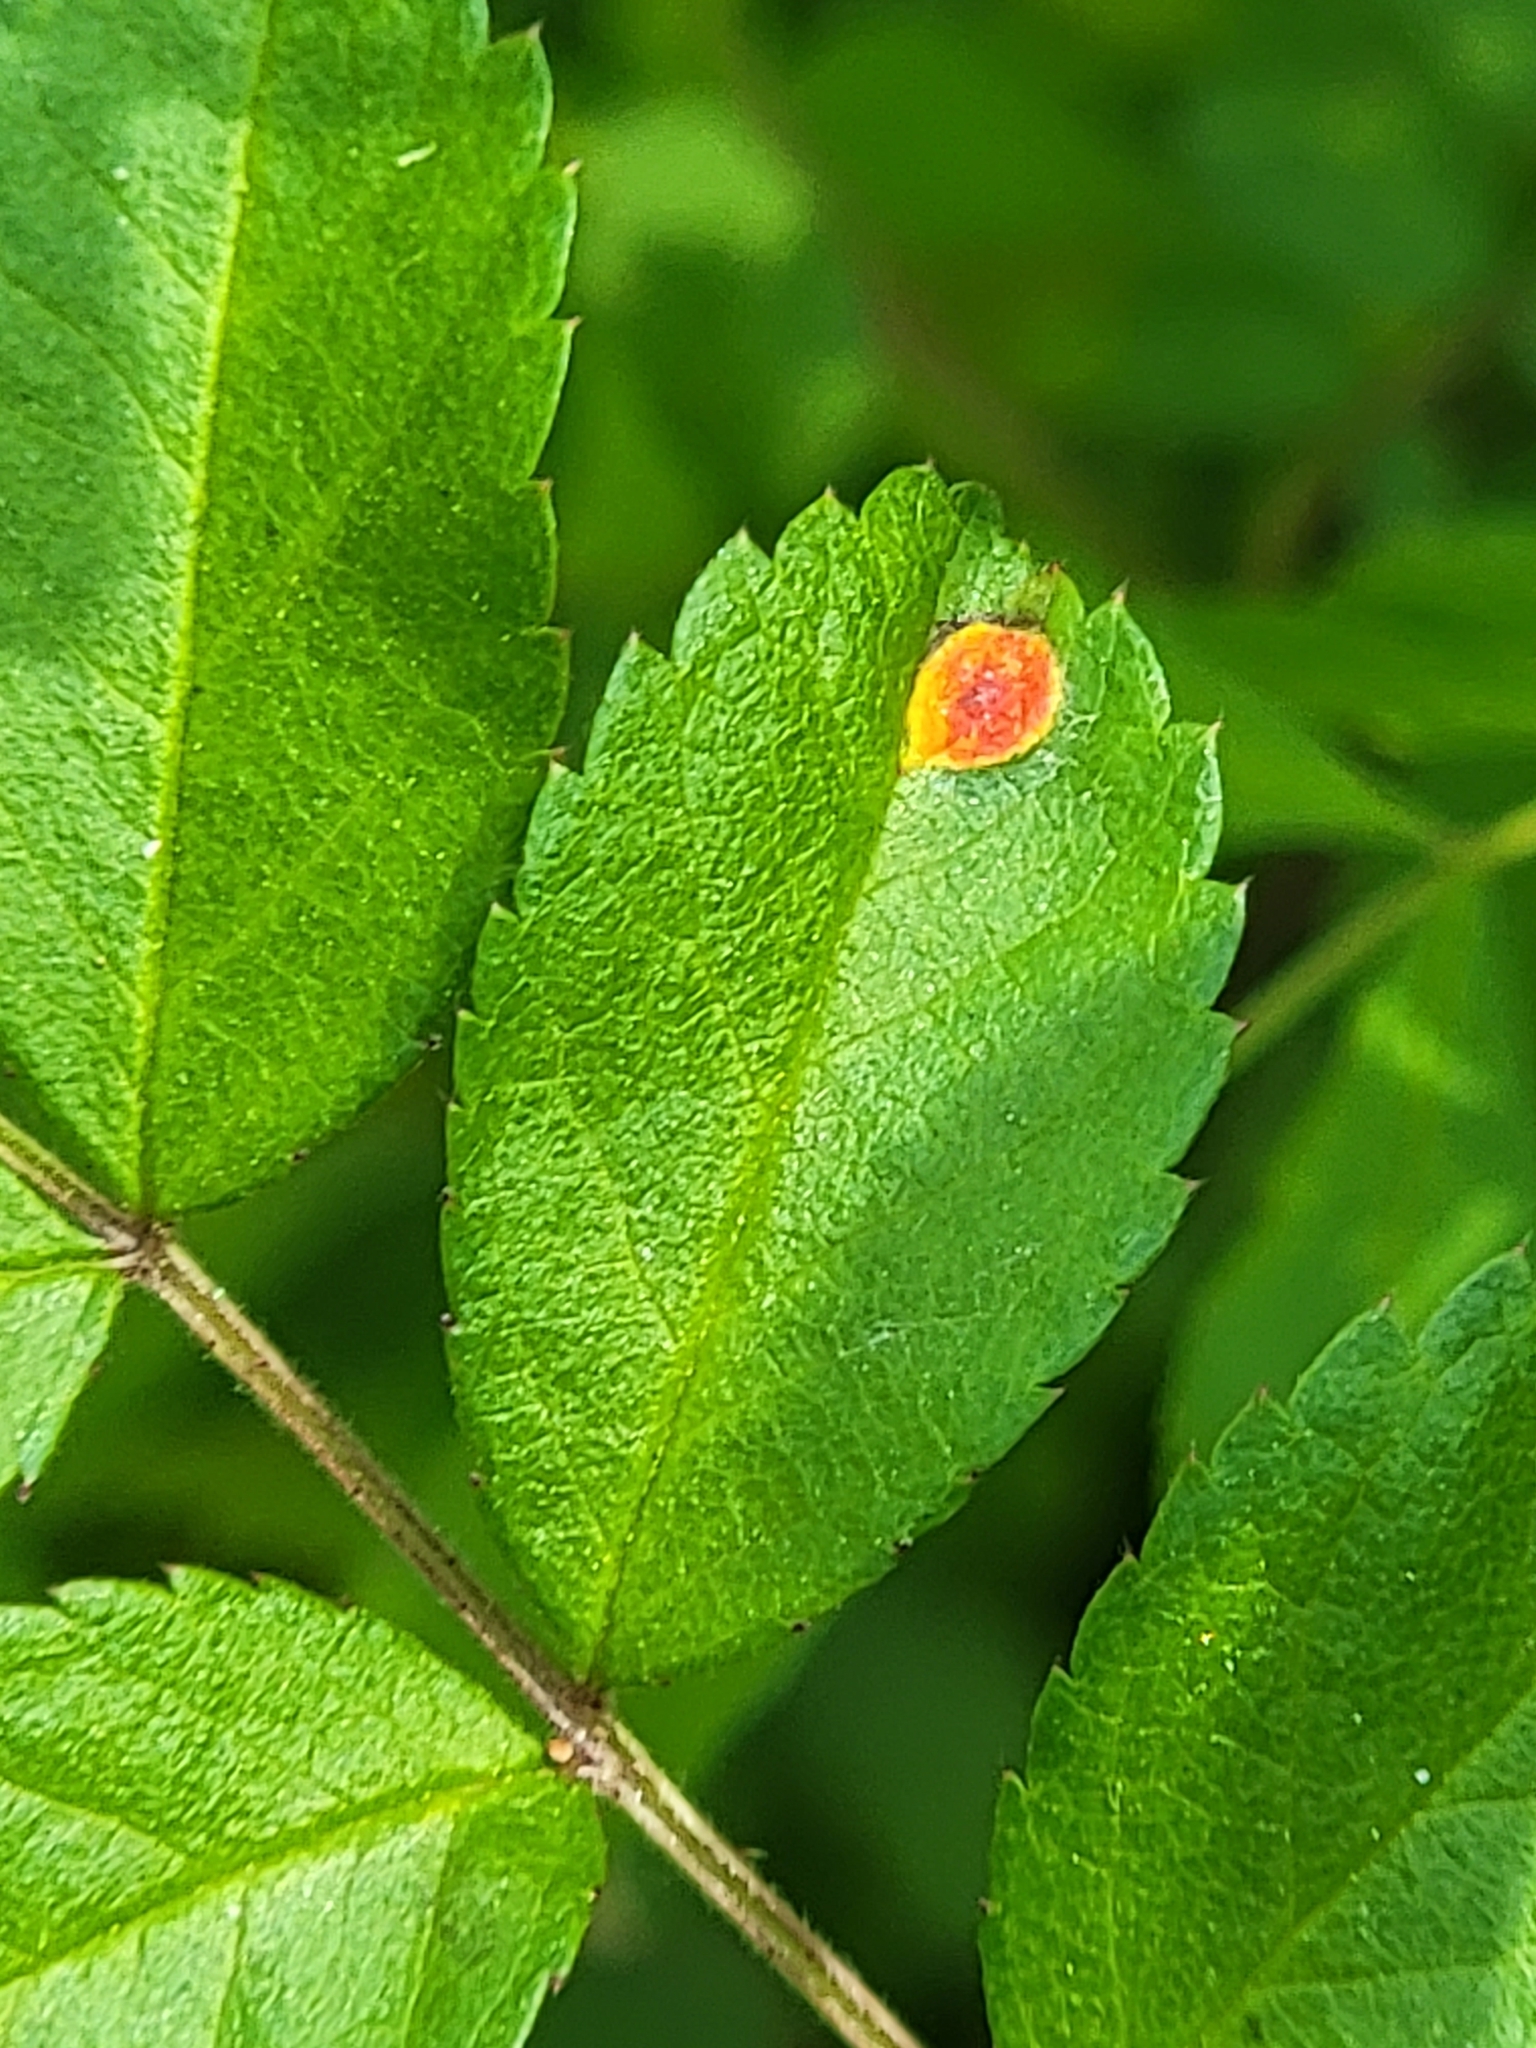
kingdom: Fungi
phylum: Basidiomycota
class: Pucciniomycetes
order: Pucciniales
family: Phragmidiaceae
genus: Phragmidium
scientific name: Phragmidium rosae-multiflorae
